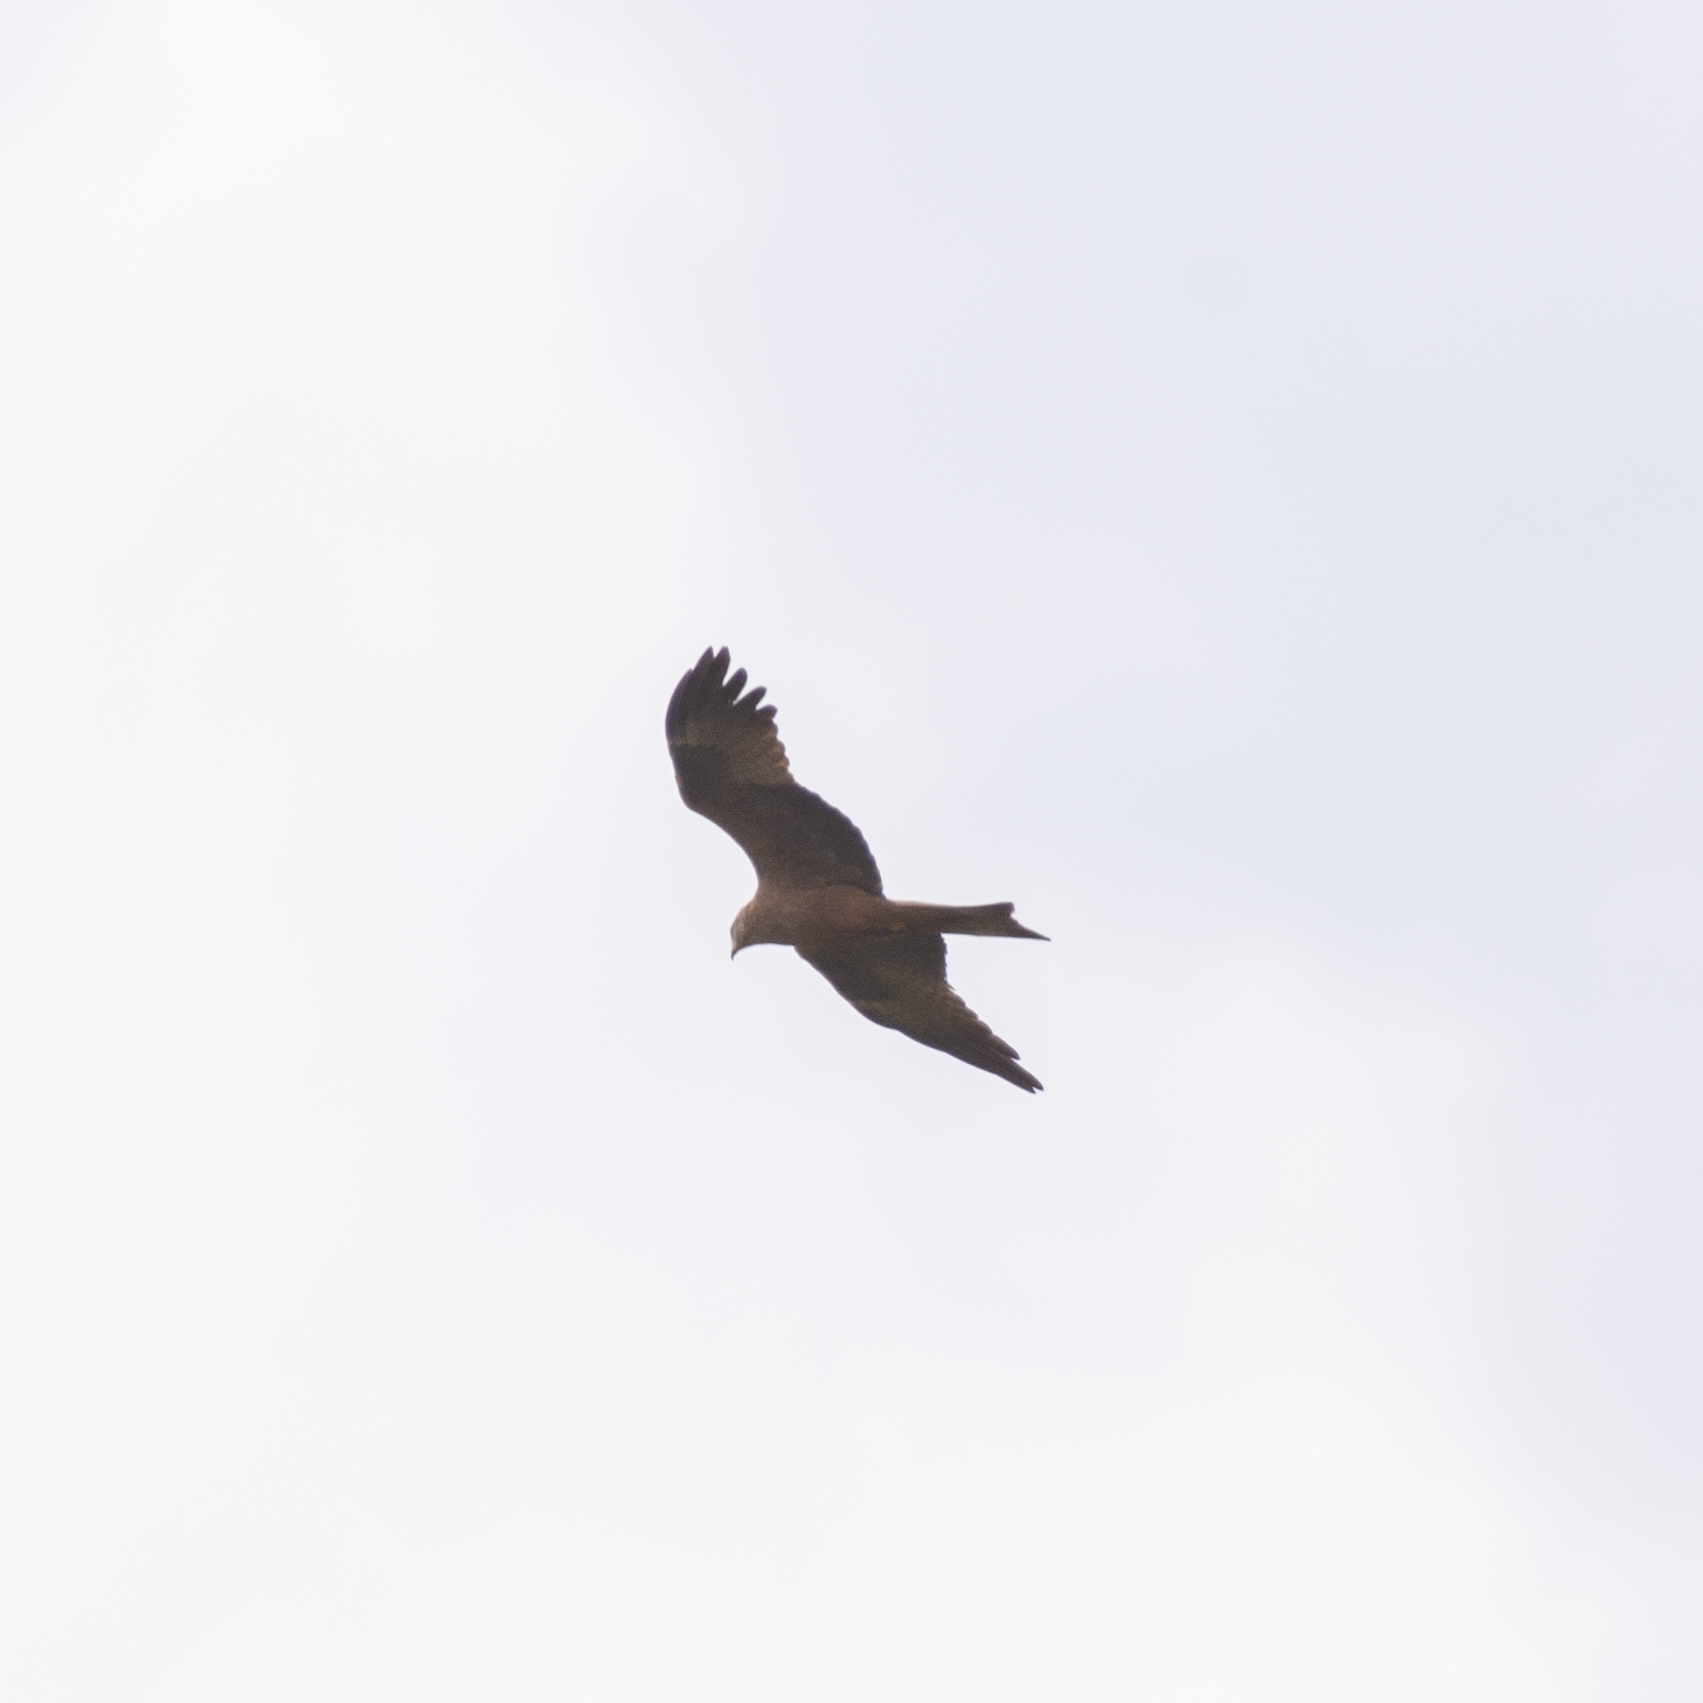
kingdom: Animalia
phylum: Chordata
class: Aves
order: Accipitriformes
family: Accipitridae
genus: Milvus
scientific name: Milvus migrans
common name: Black kite
